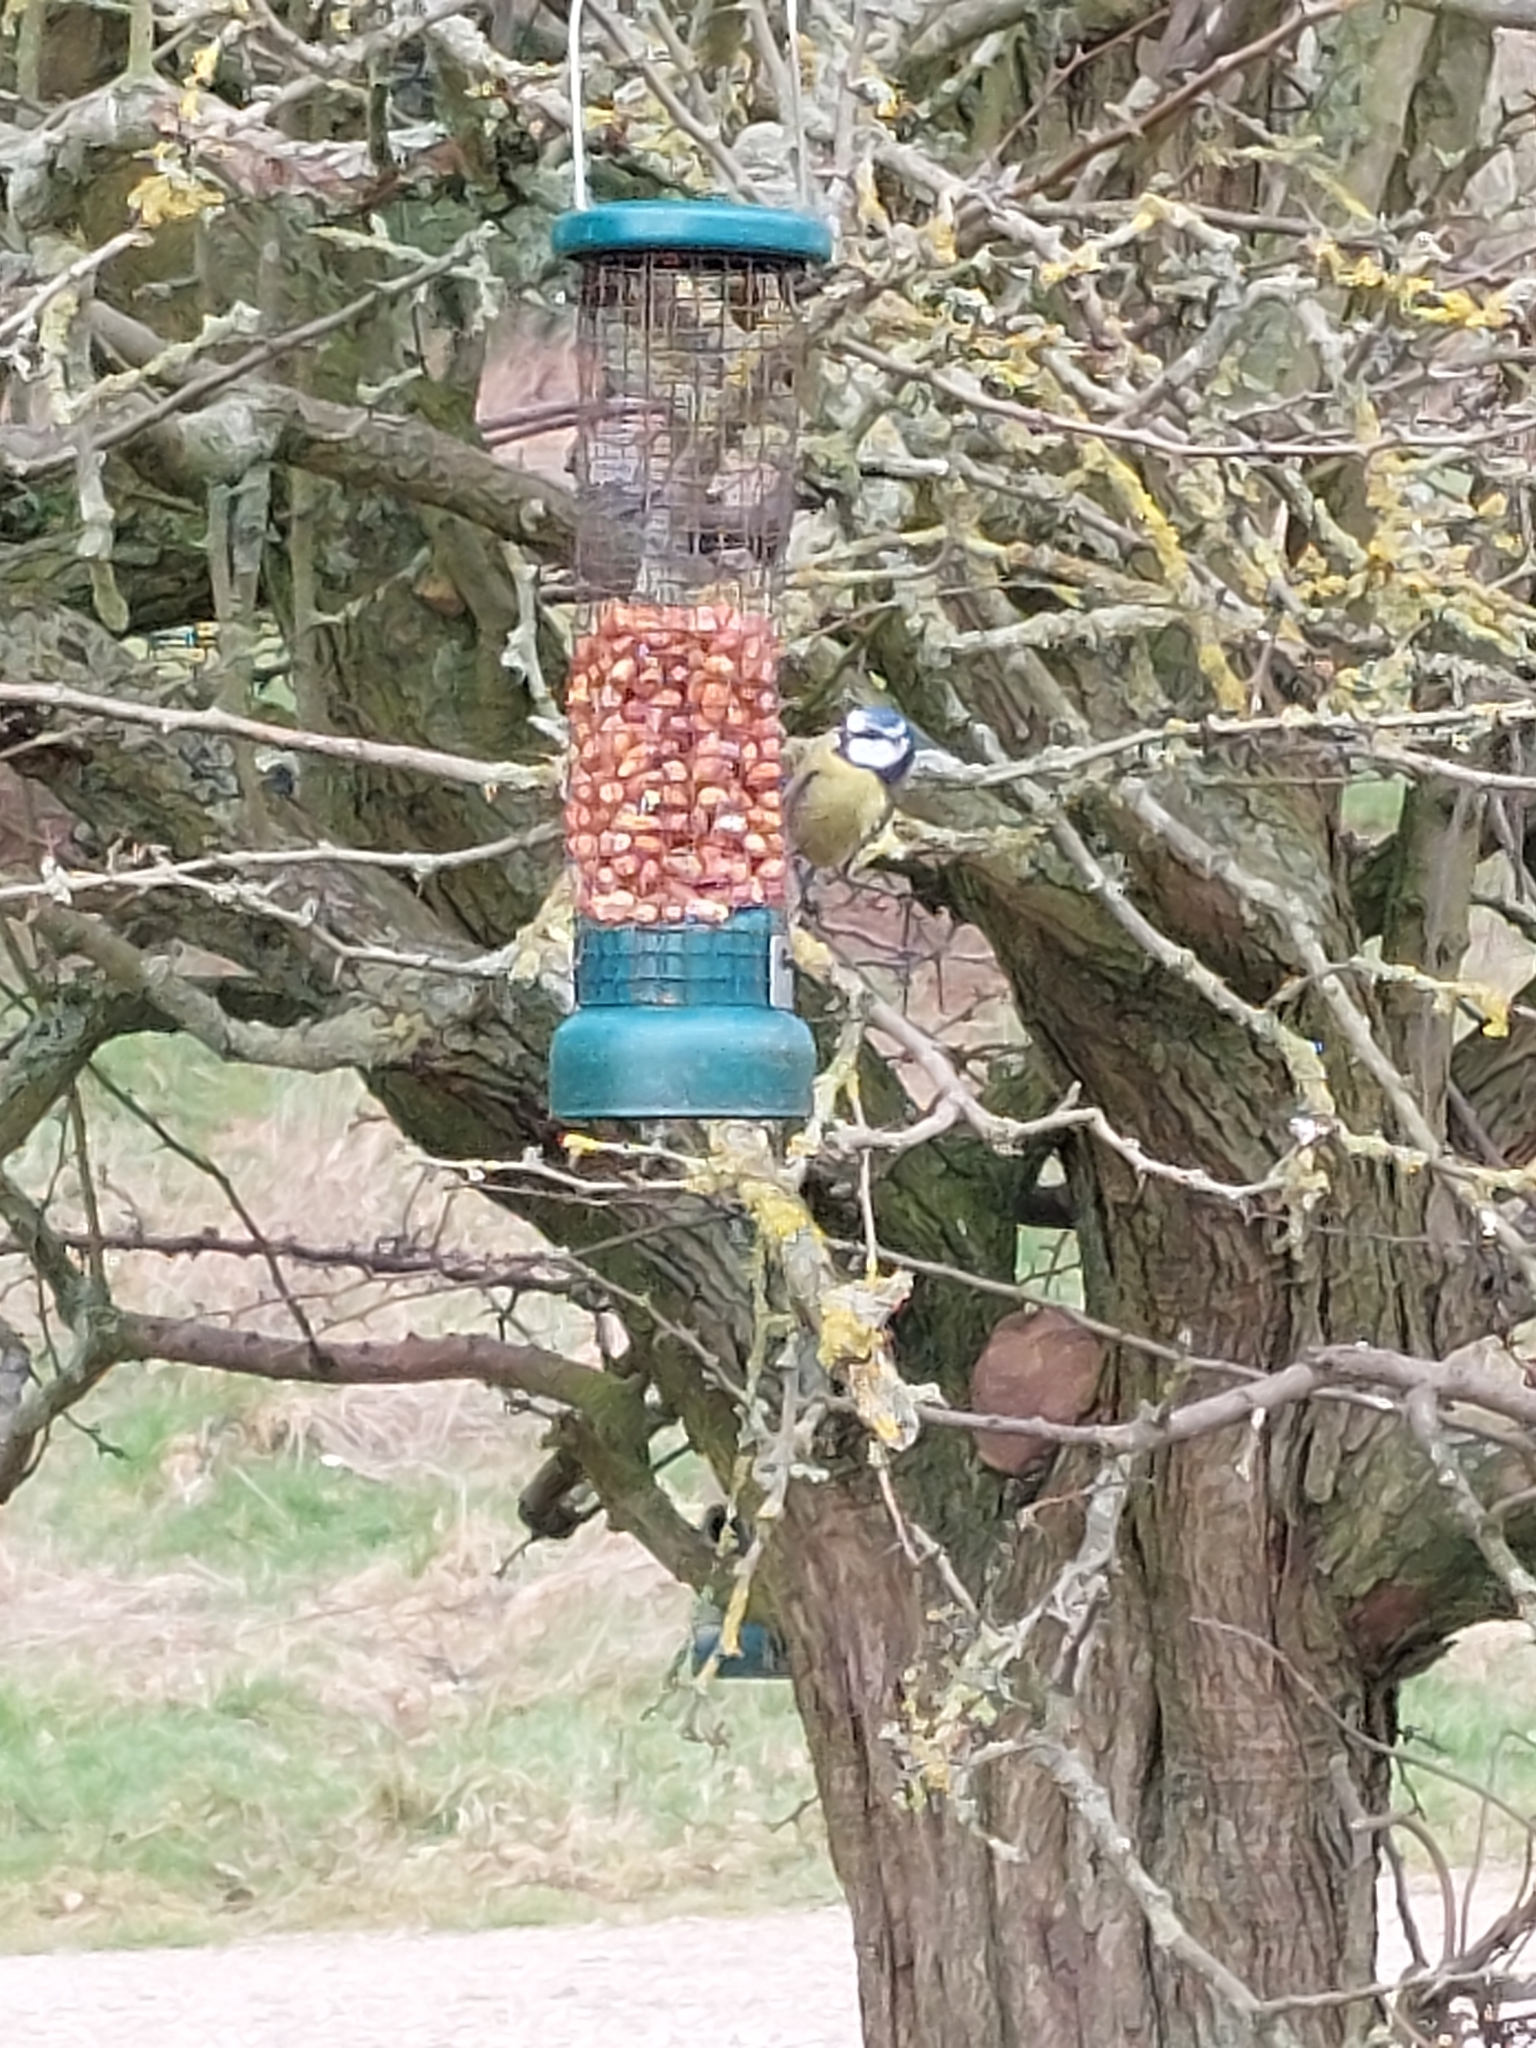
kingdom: Animalia
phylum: Chordata
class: Aves
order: Passeriformes
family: Paridae
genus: Cyanistes
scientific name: Cyanistes caeruleus
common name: Eurasian blue tit
